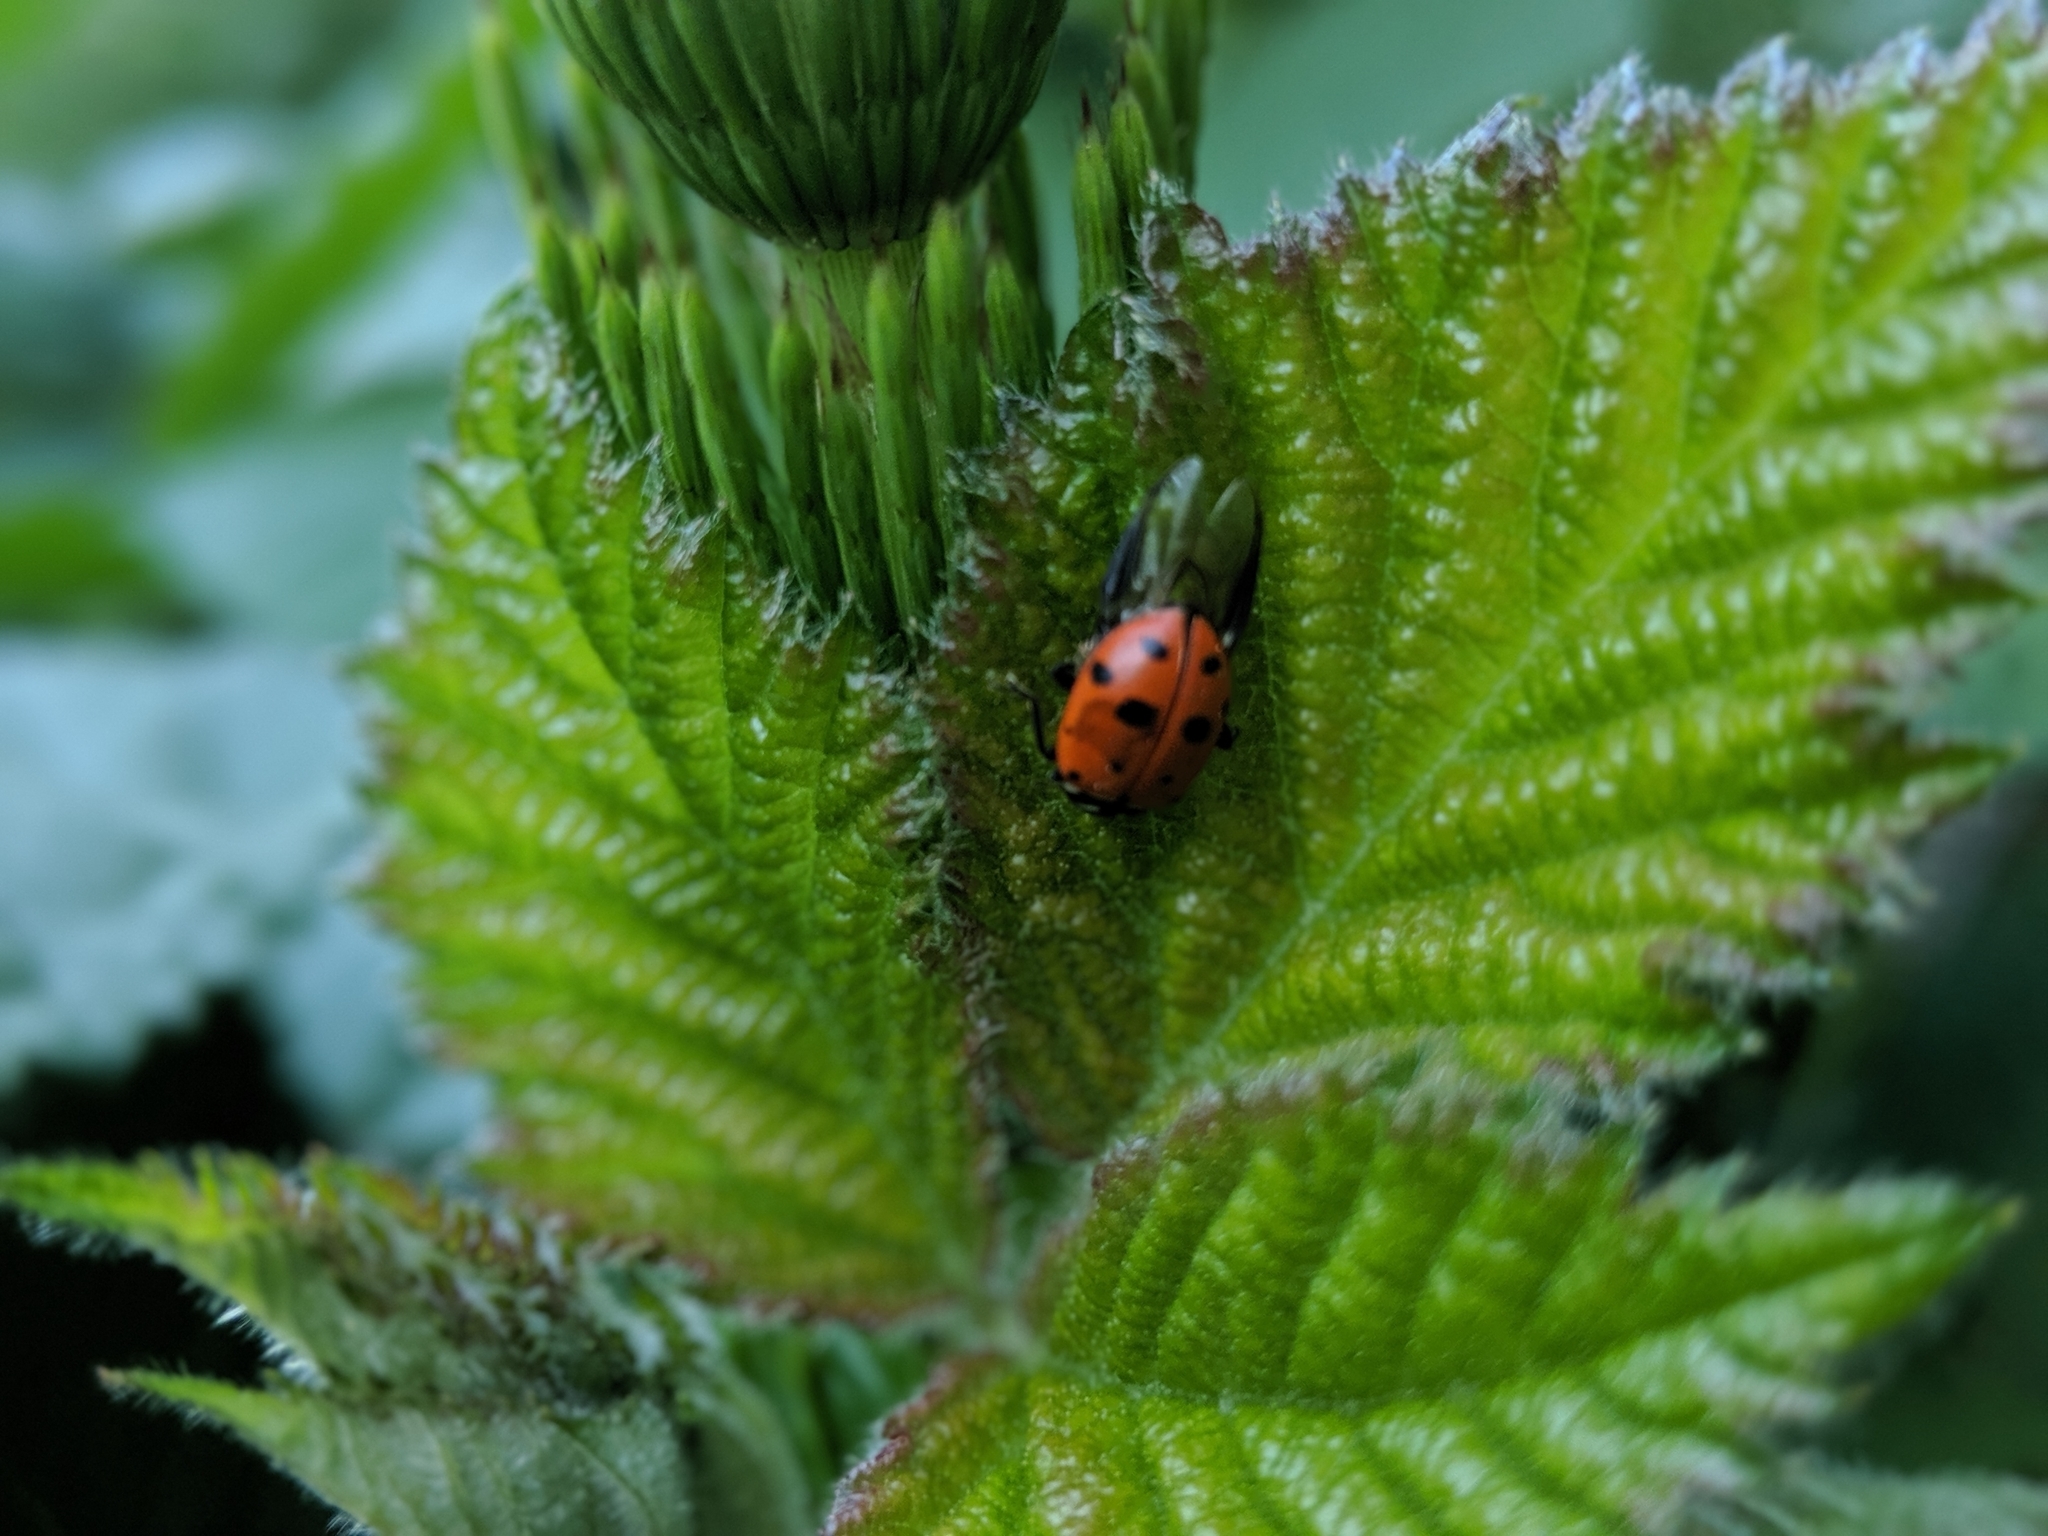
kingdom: Animalia
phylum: Arthropoda
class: Insecta
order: Coleoptera
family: Coccinellidae
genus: Hippodamia
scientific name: Hippodamia convergens
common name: Convergent lady beetle
